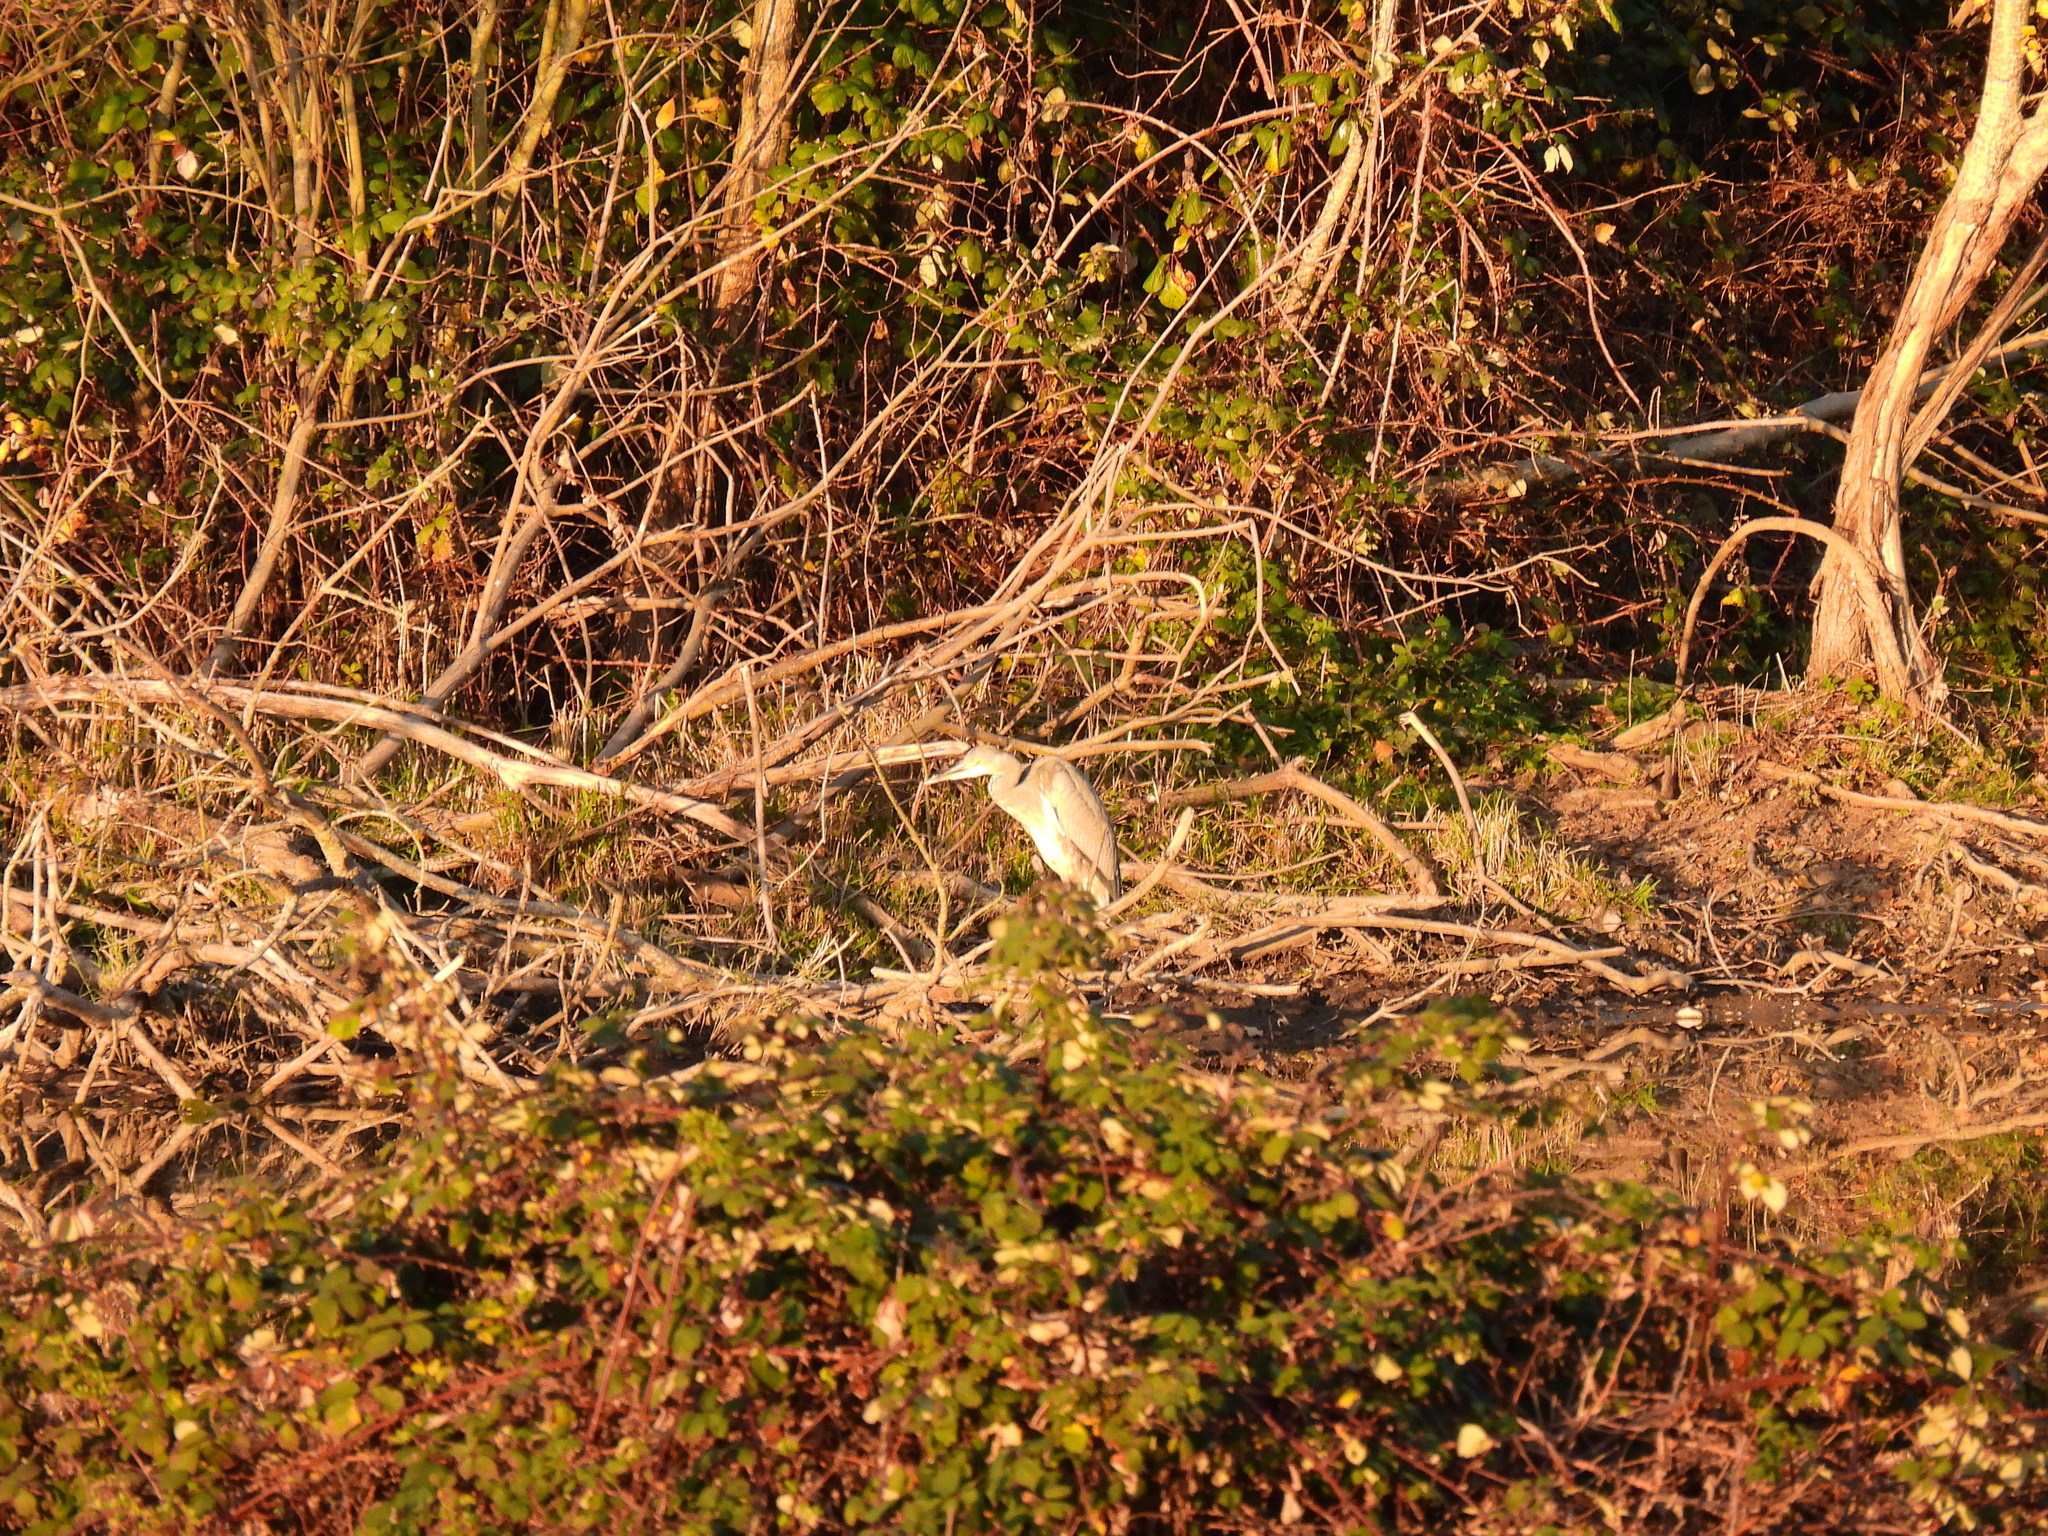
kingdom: Animalia
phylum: Chordata
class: Aves
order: Pelecaniformes
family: Ardeidae
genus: Ardea
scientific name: Ardea cinerea
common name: Grey heron
